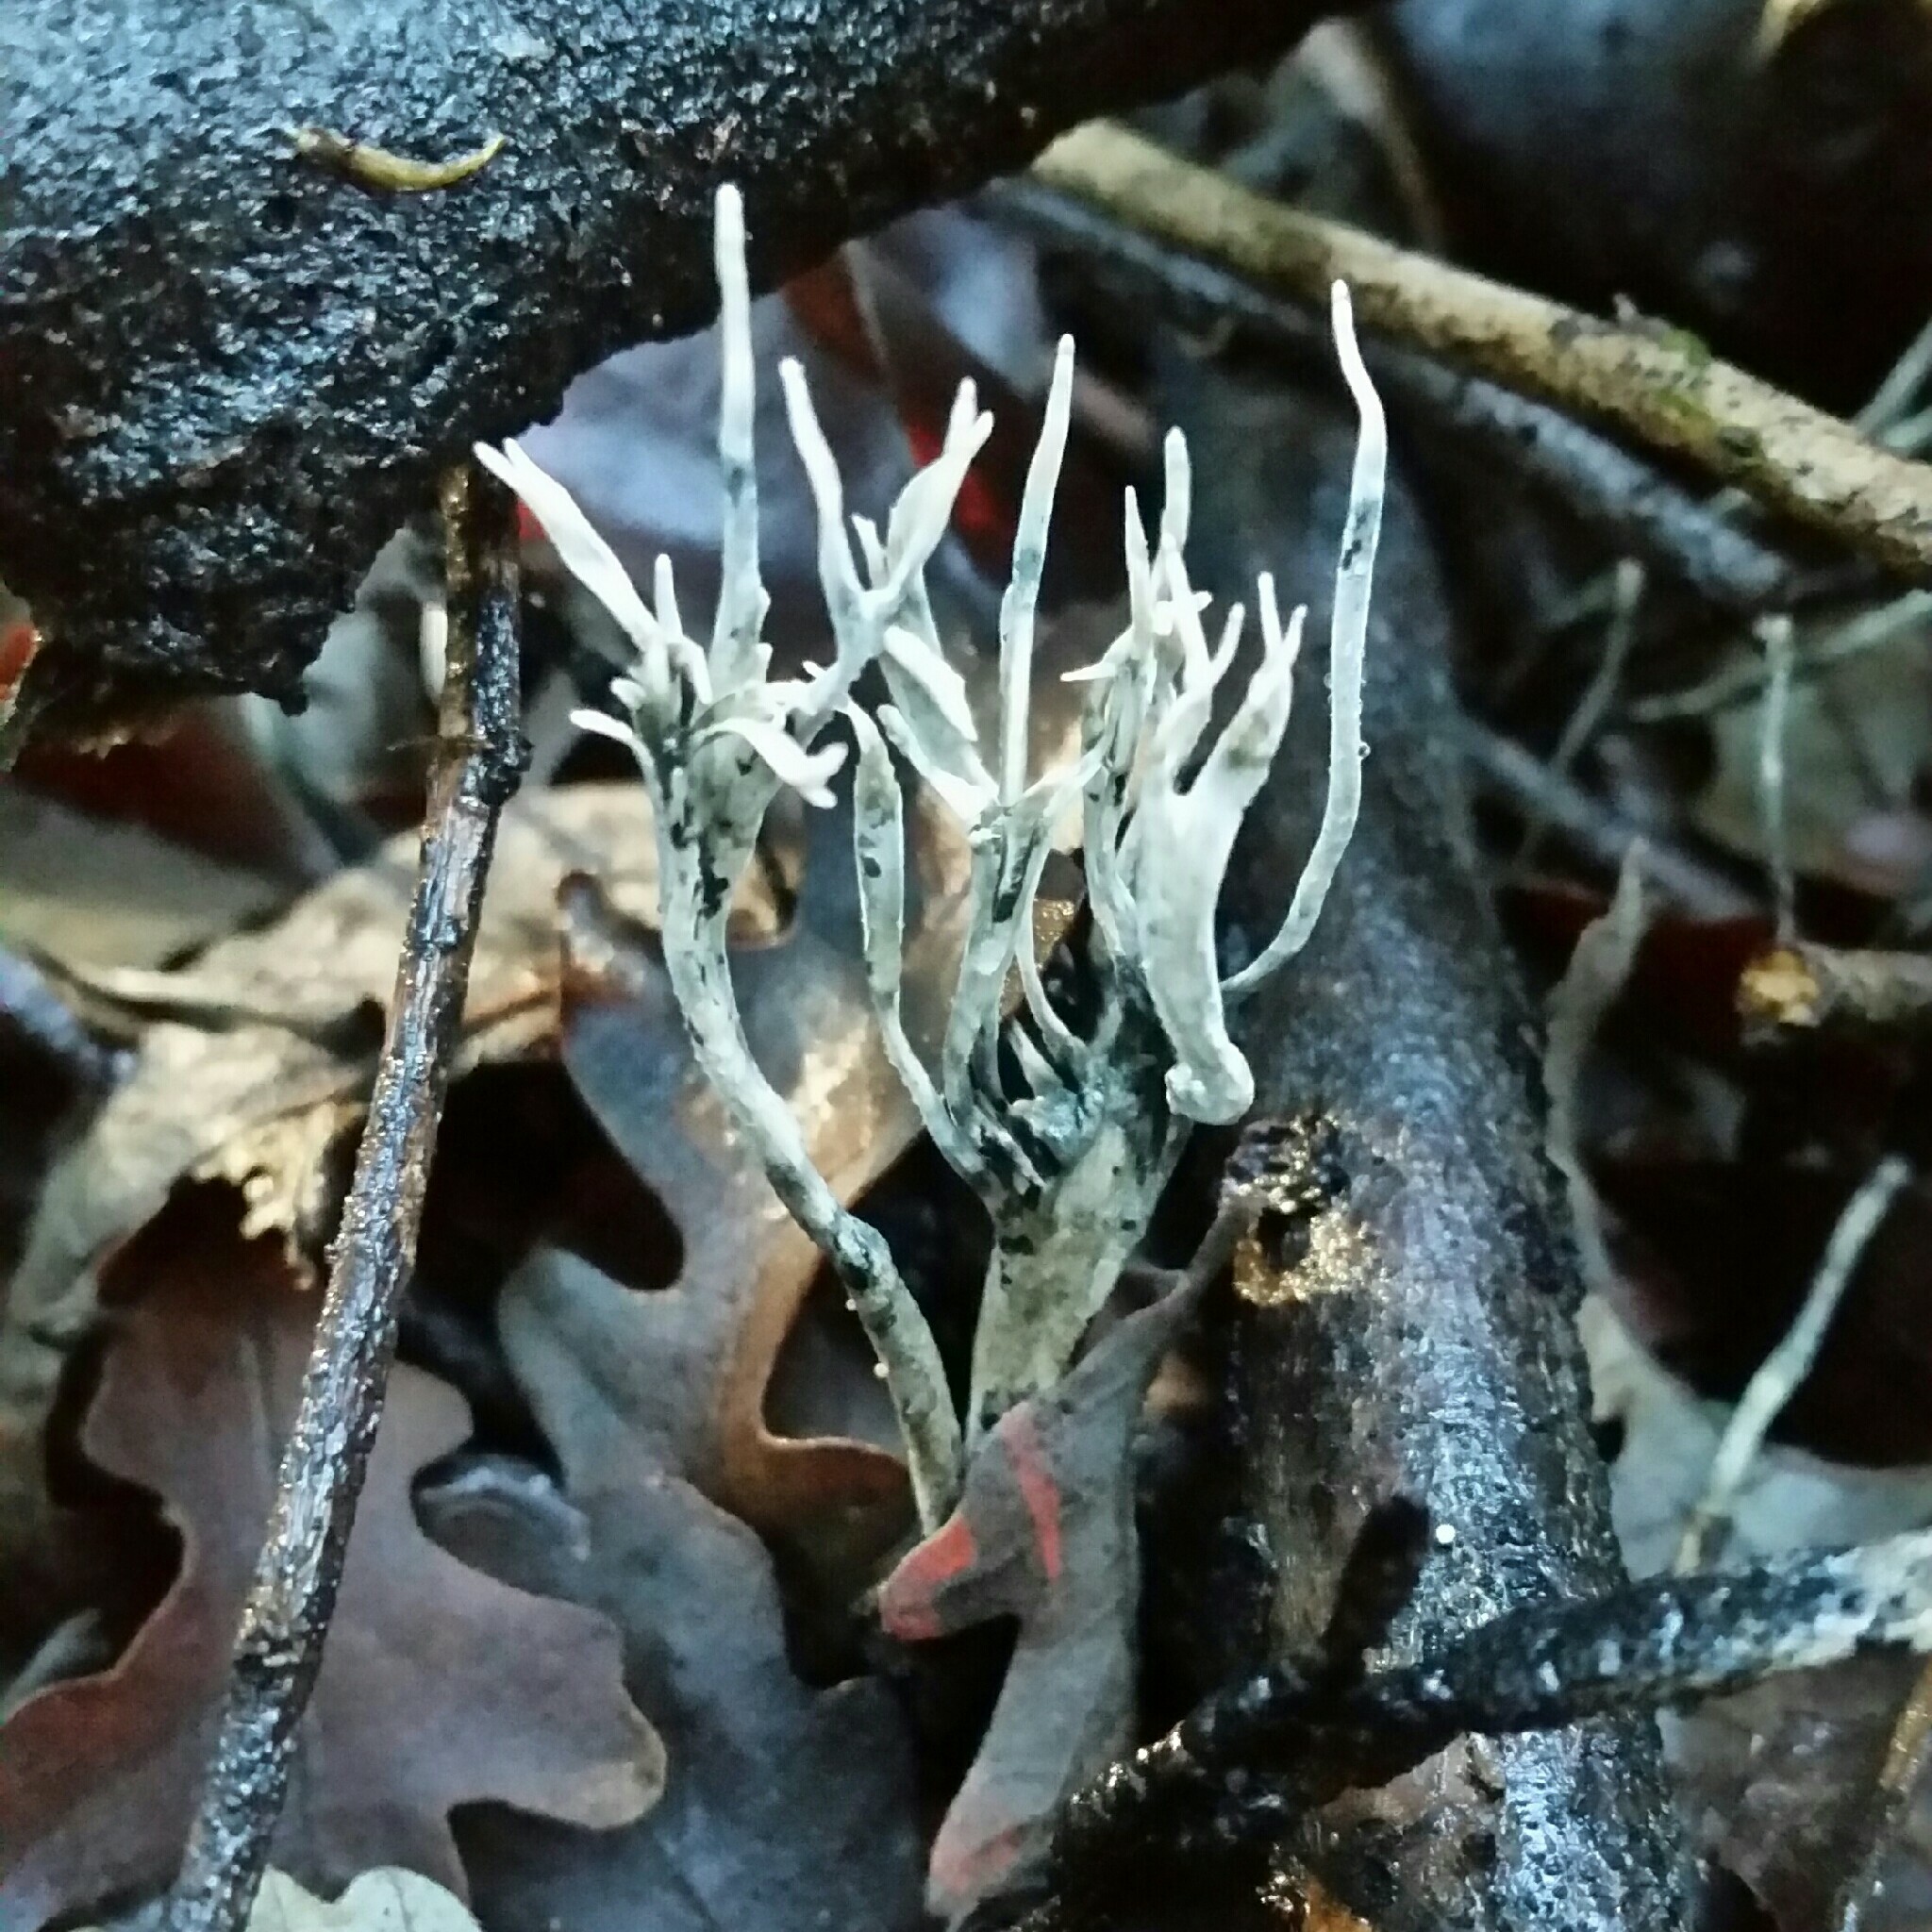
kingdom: Fungi
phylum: Ascomycota
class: Sordariomycetes
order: Xylariales
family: Xylariaceae
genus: Xylaria
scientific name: Xylaria hypoxylon
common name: Candle-snuff fungus
